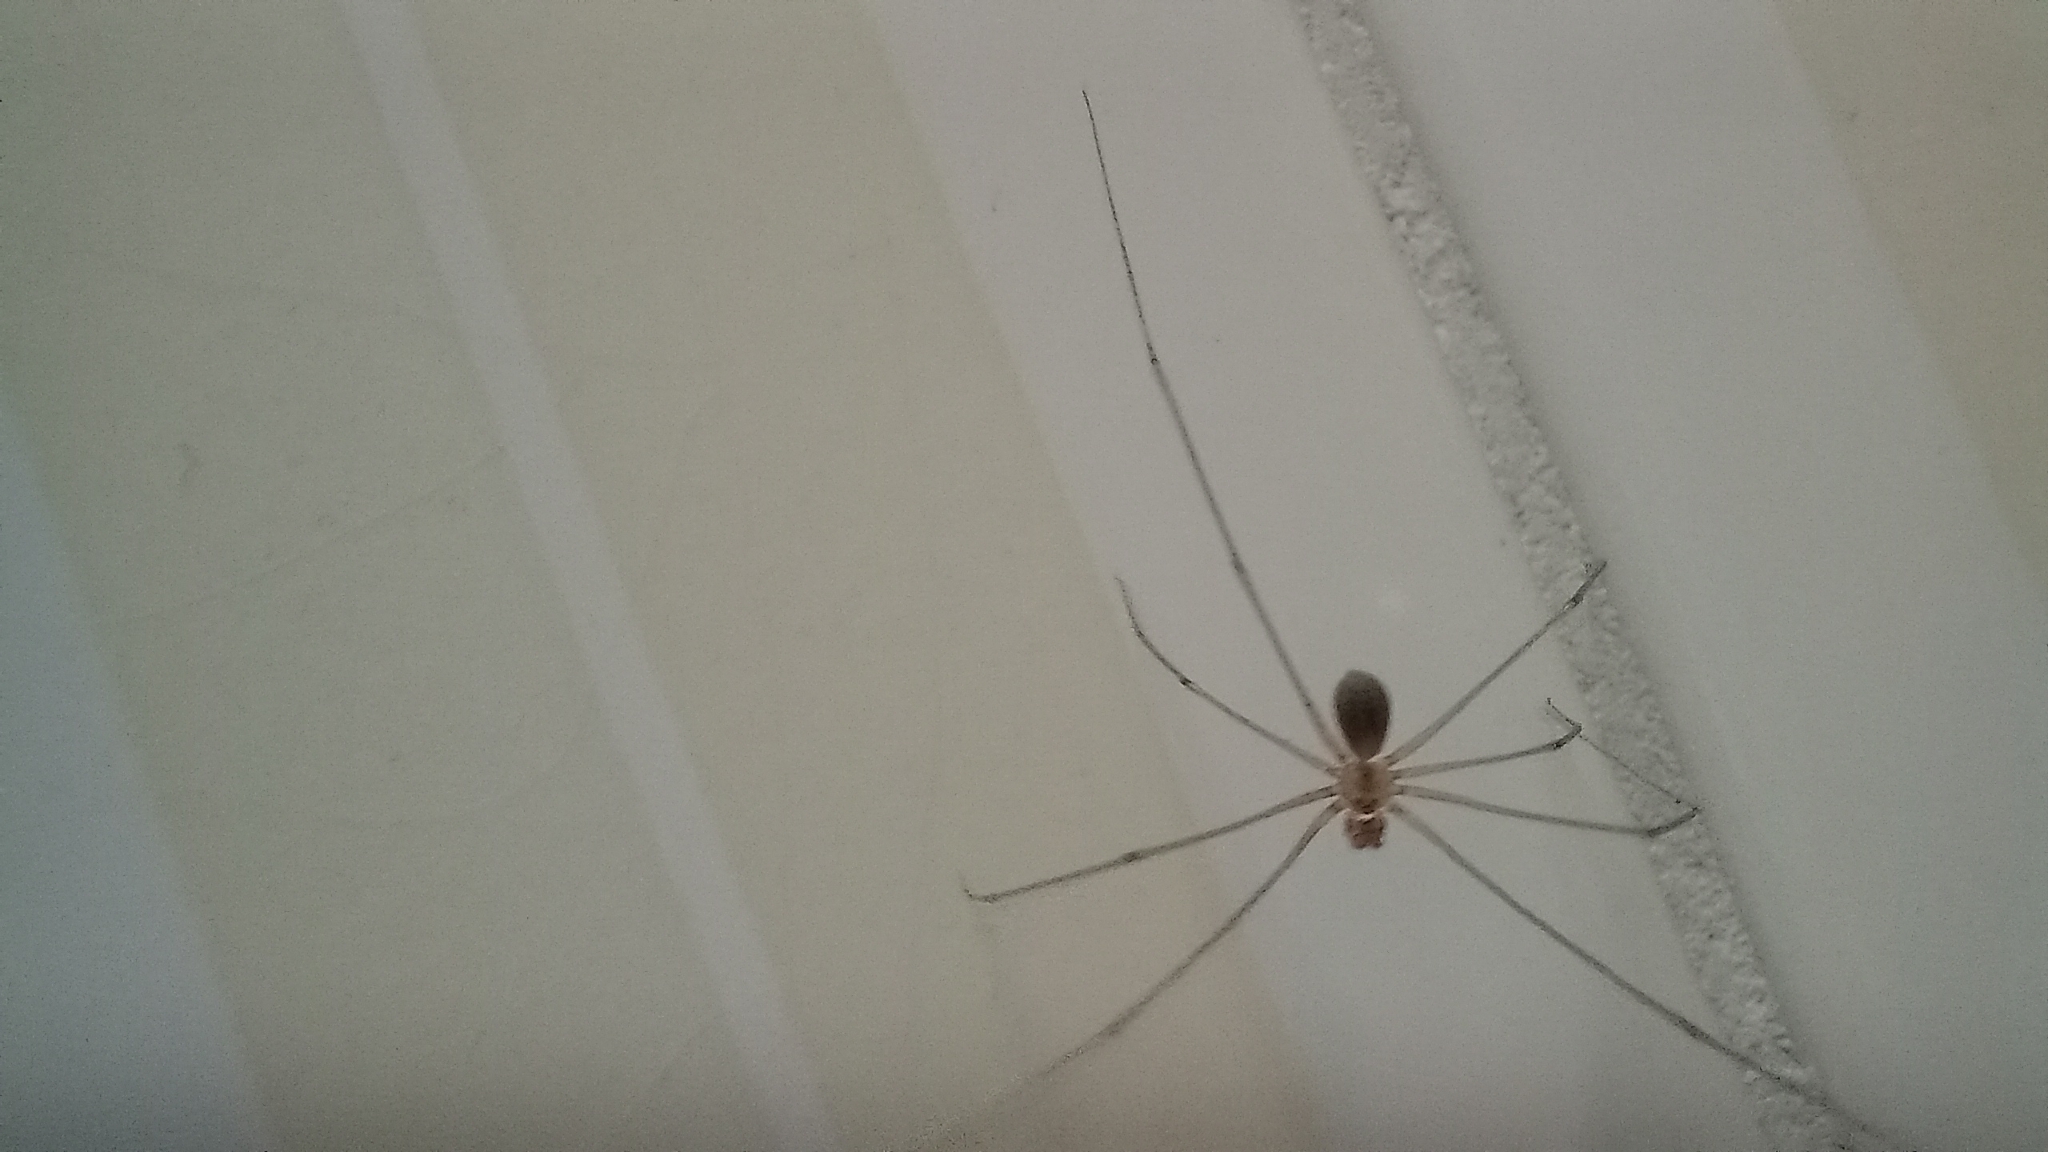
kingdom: Animalia
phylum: Arthropoda
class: Arachnida
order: Araneae
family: Pholcidae
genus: Pholcus
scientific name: Pholcus phalangioides
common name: Longbodied cellar spider
